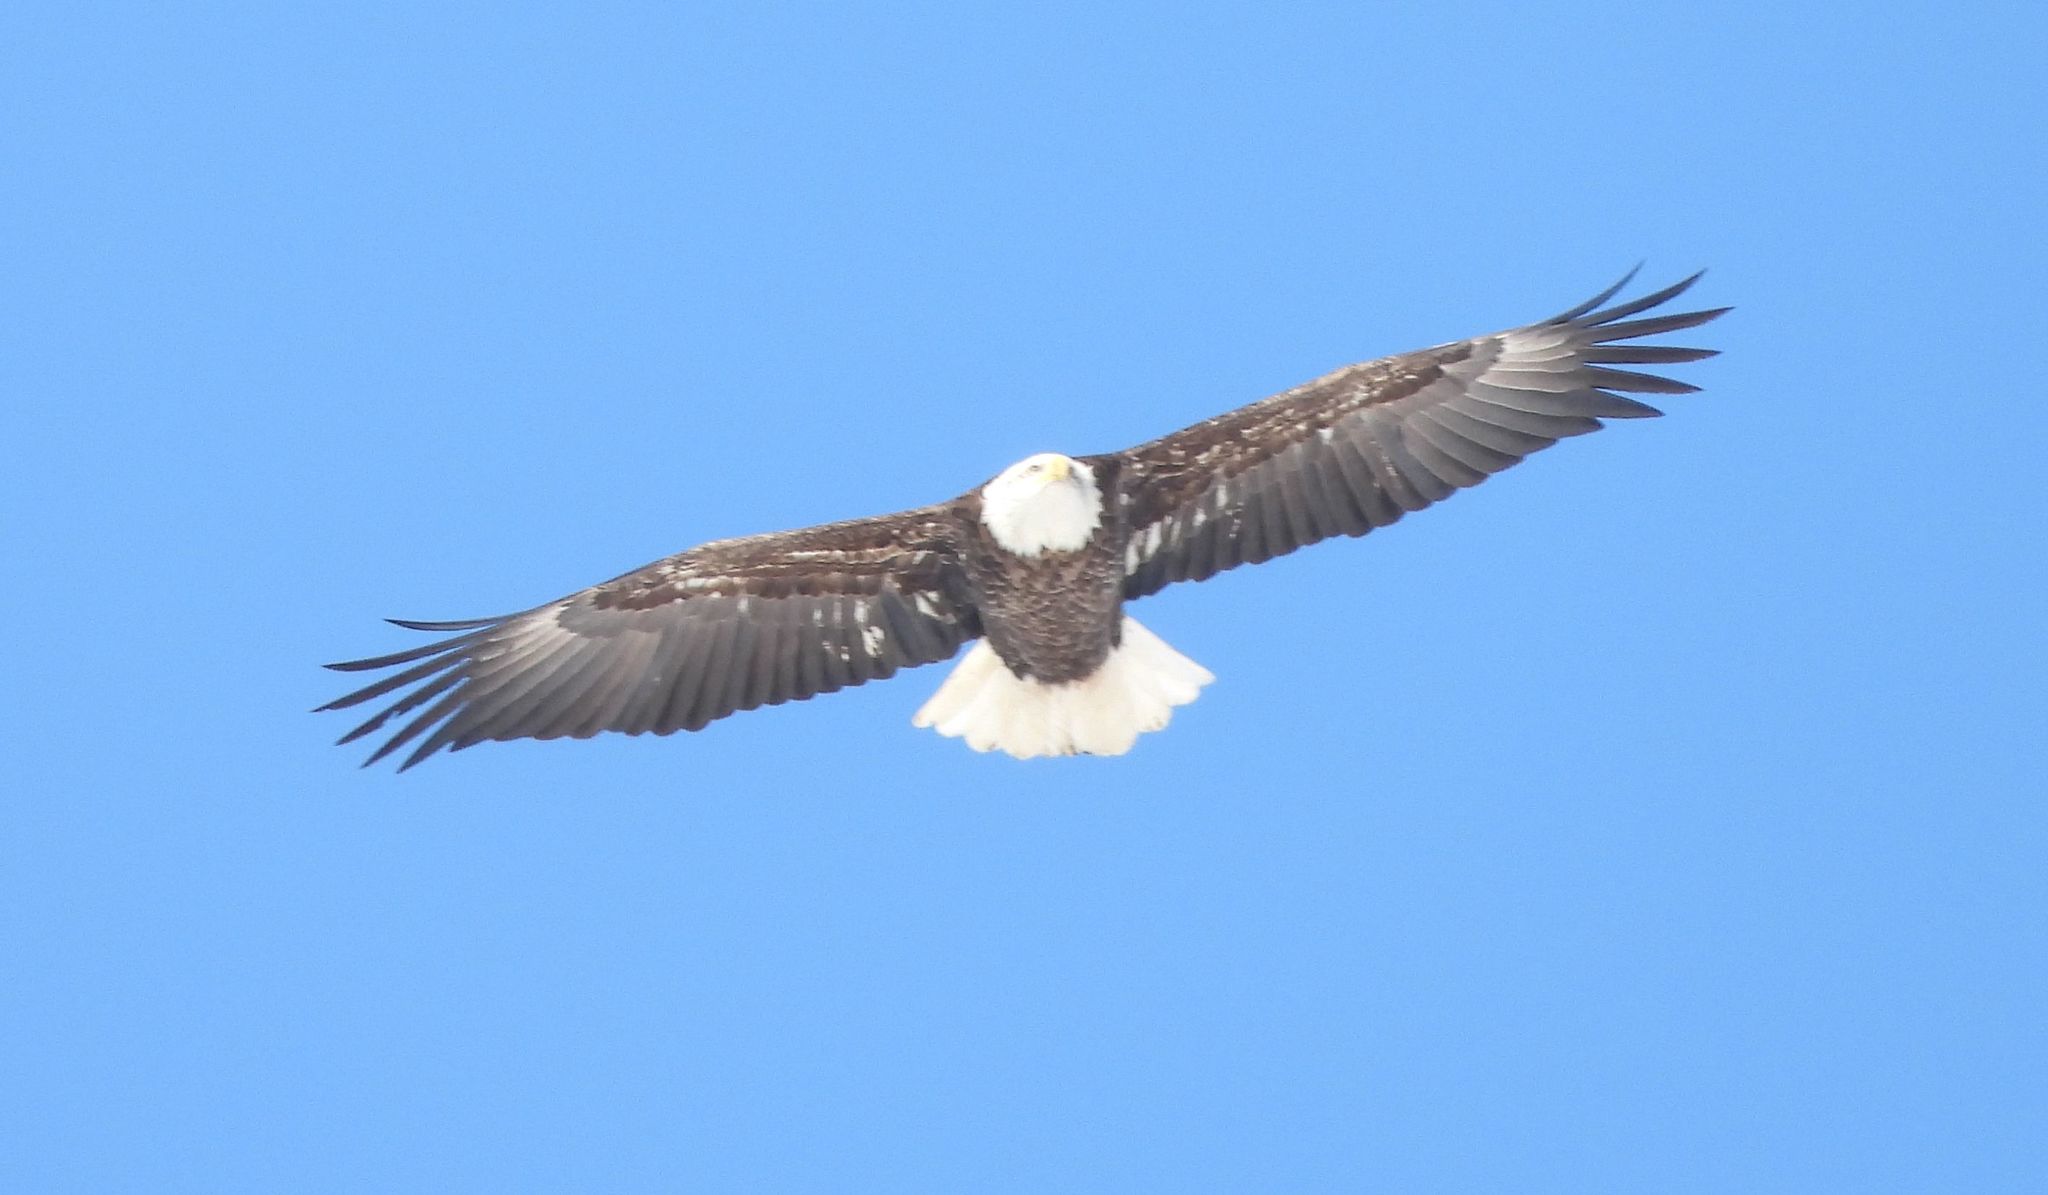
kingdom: Animalia
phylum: Chordata
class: Aves
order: Accipitriformes
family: Accipitridae
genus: Haliaeetus
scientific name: Haliaeetus leucocephalus
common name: Bald eagle
